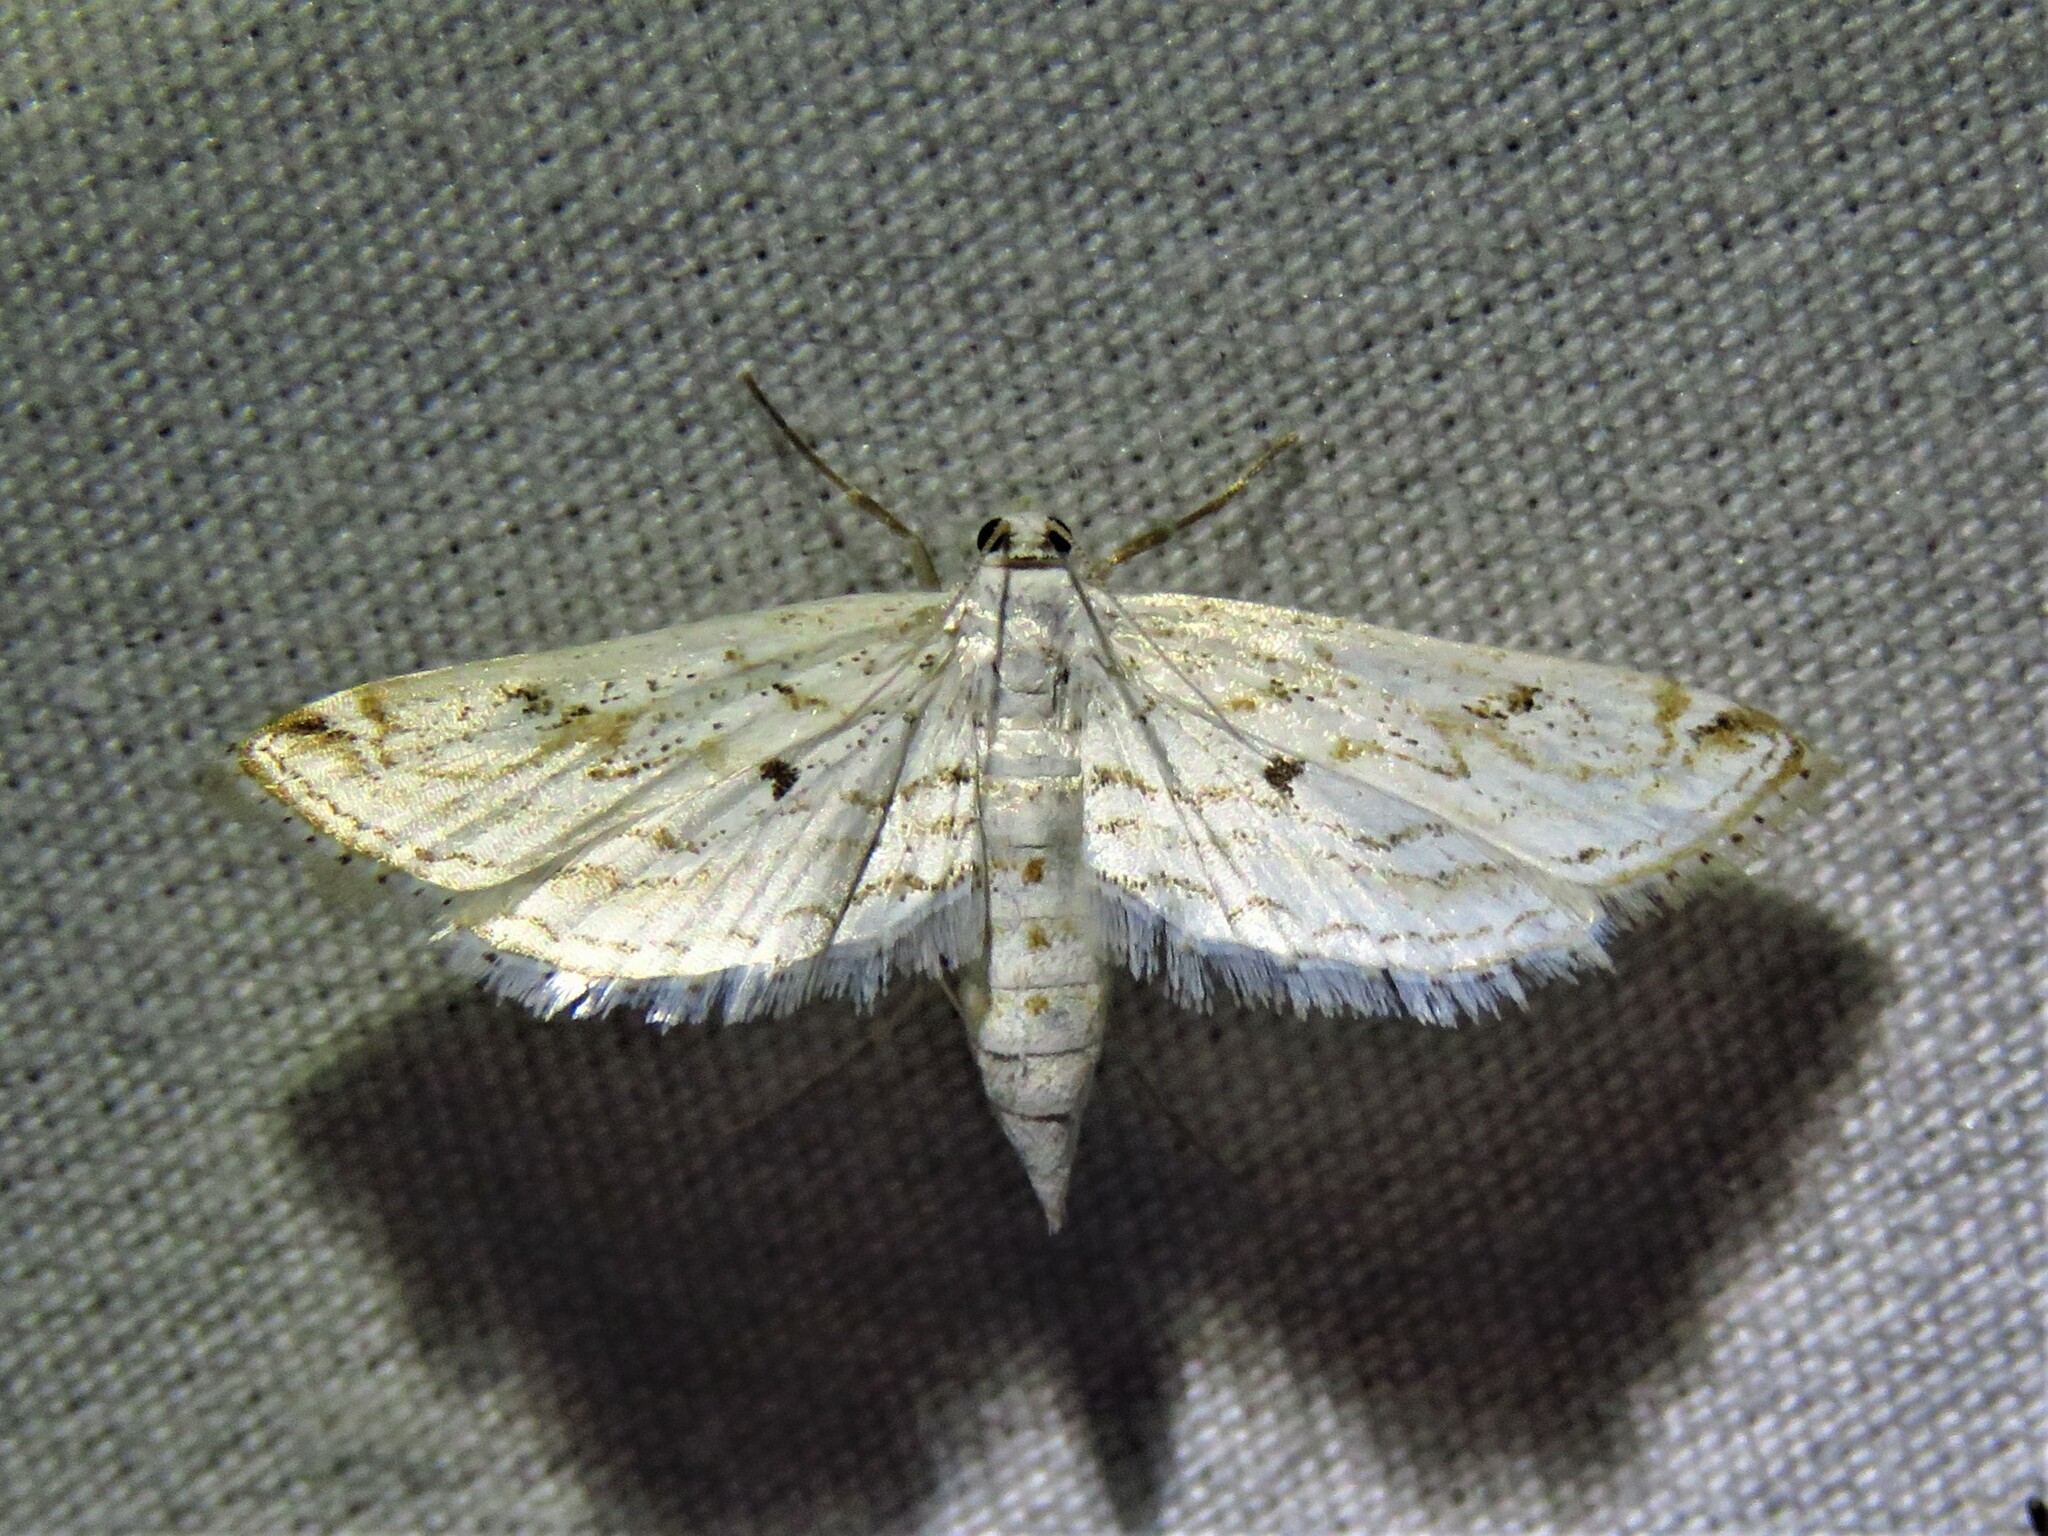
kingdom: Animalia
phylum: Arthropoda
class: Insecta
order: Lepidoptera
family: Crambidae
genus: Parapoynx
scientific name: Parapoynx allionealis
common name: Bladderwort casemaker
